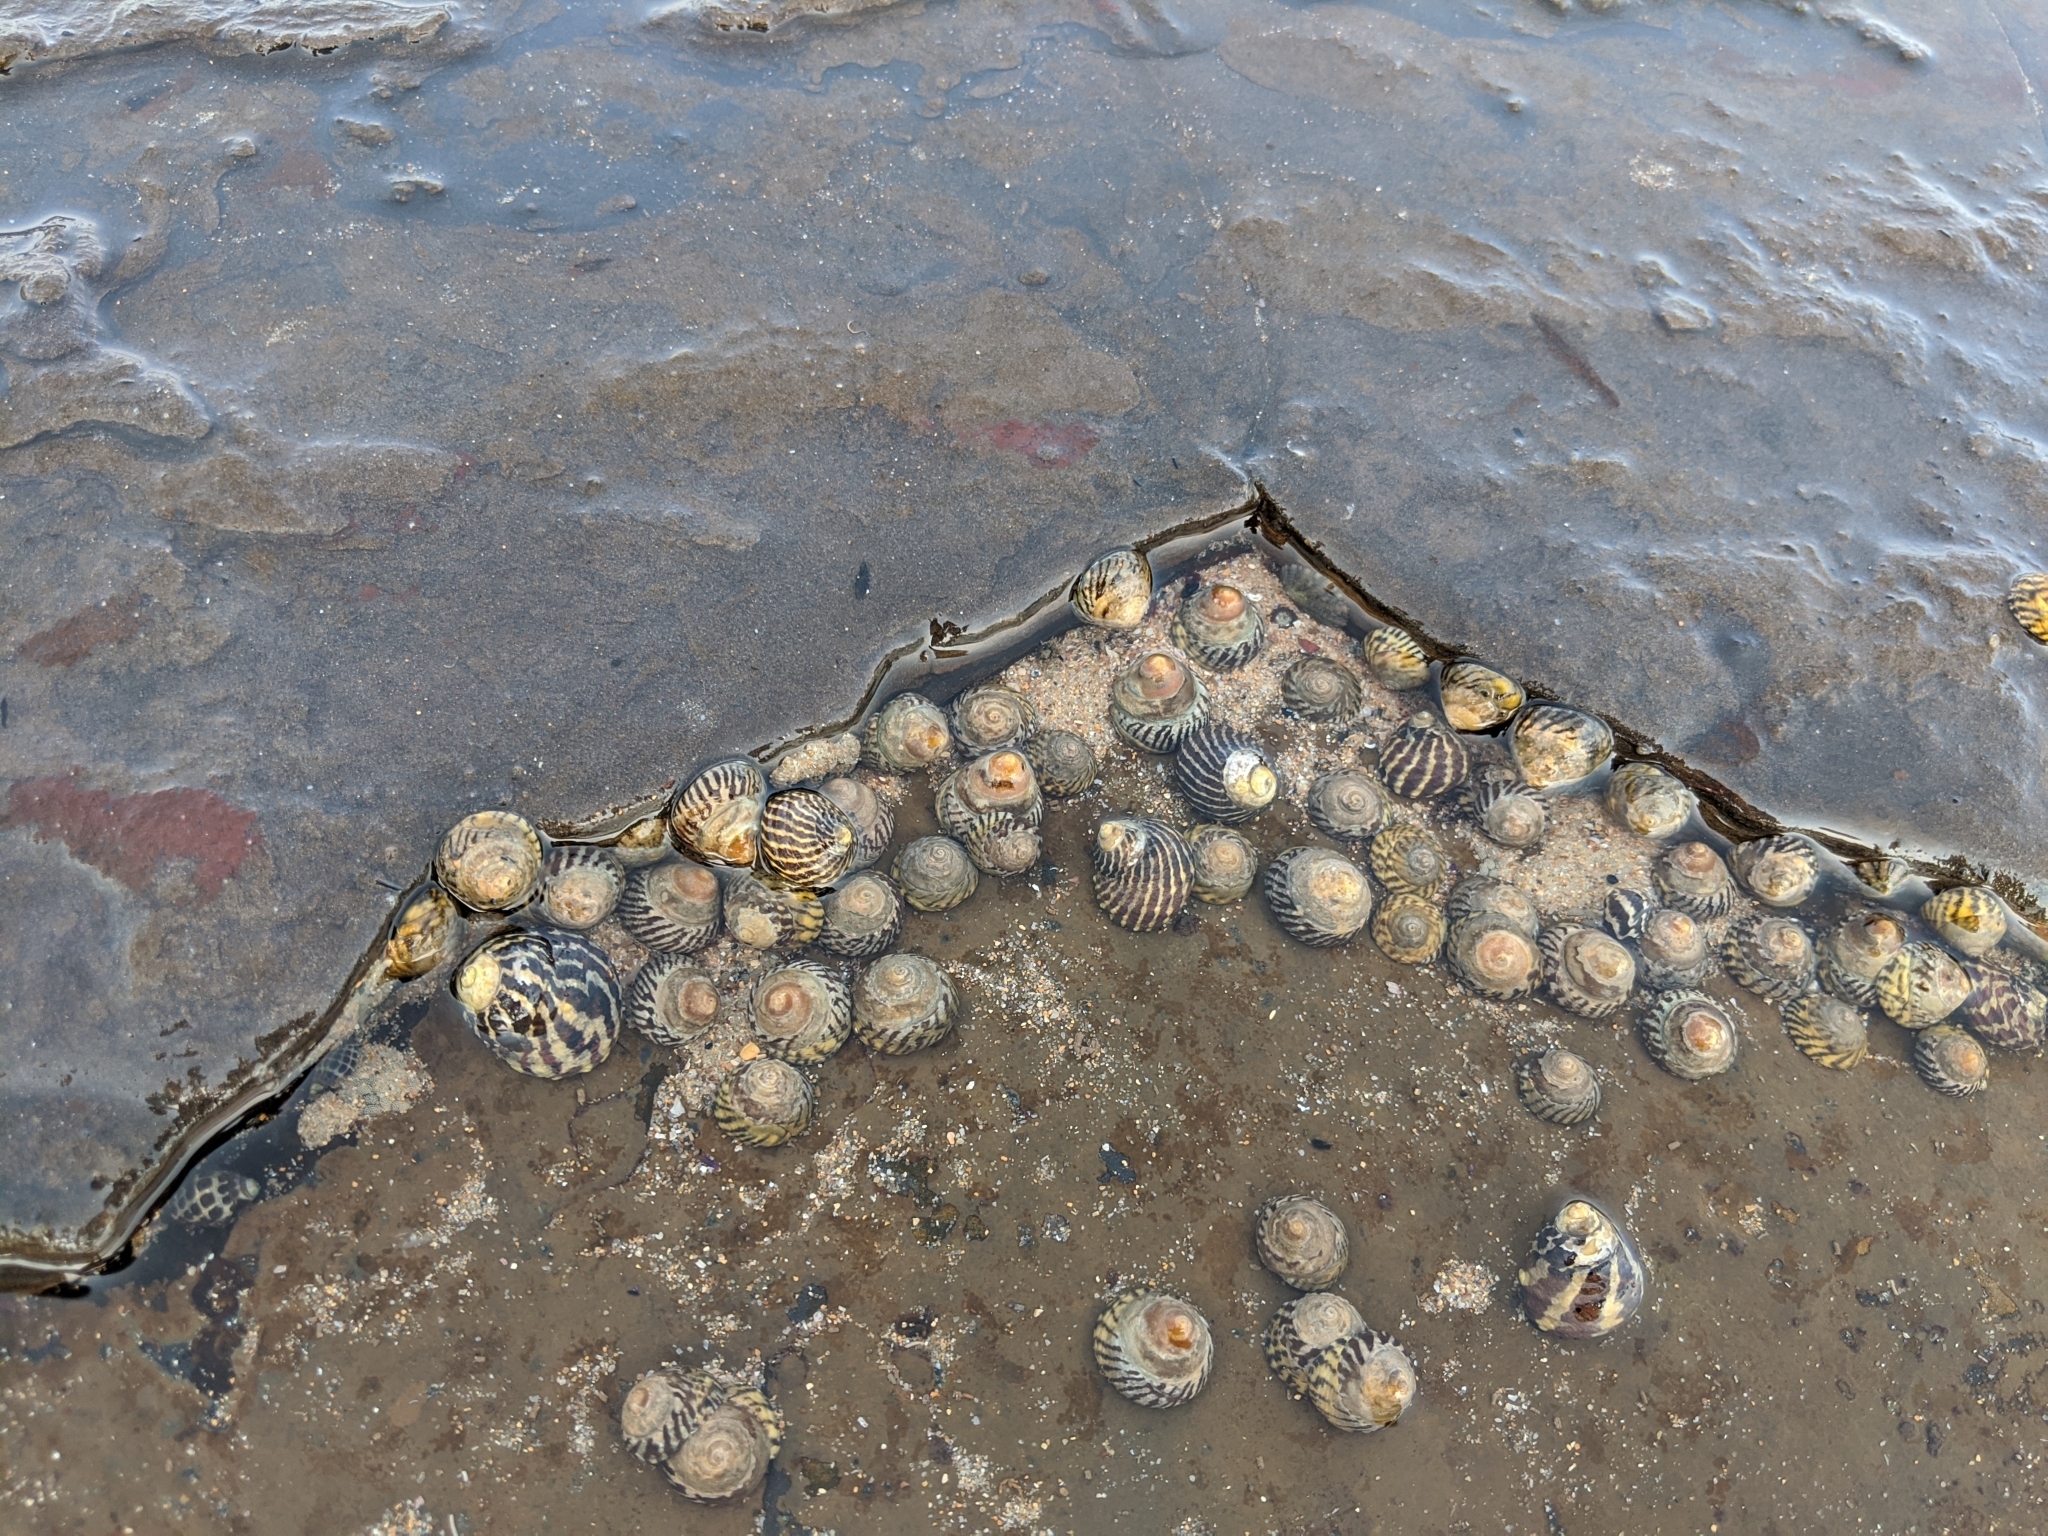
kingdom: Animalia
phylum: Mollusca
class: Gastropoda
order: Littorinimorpha
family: Littorinidae
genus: Bembicium
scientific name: Bembicium nanum
